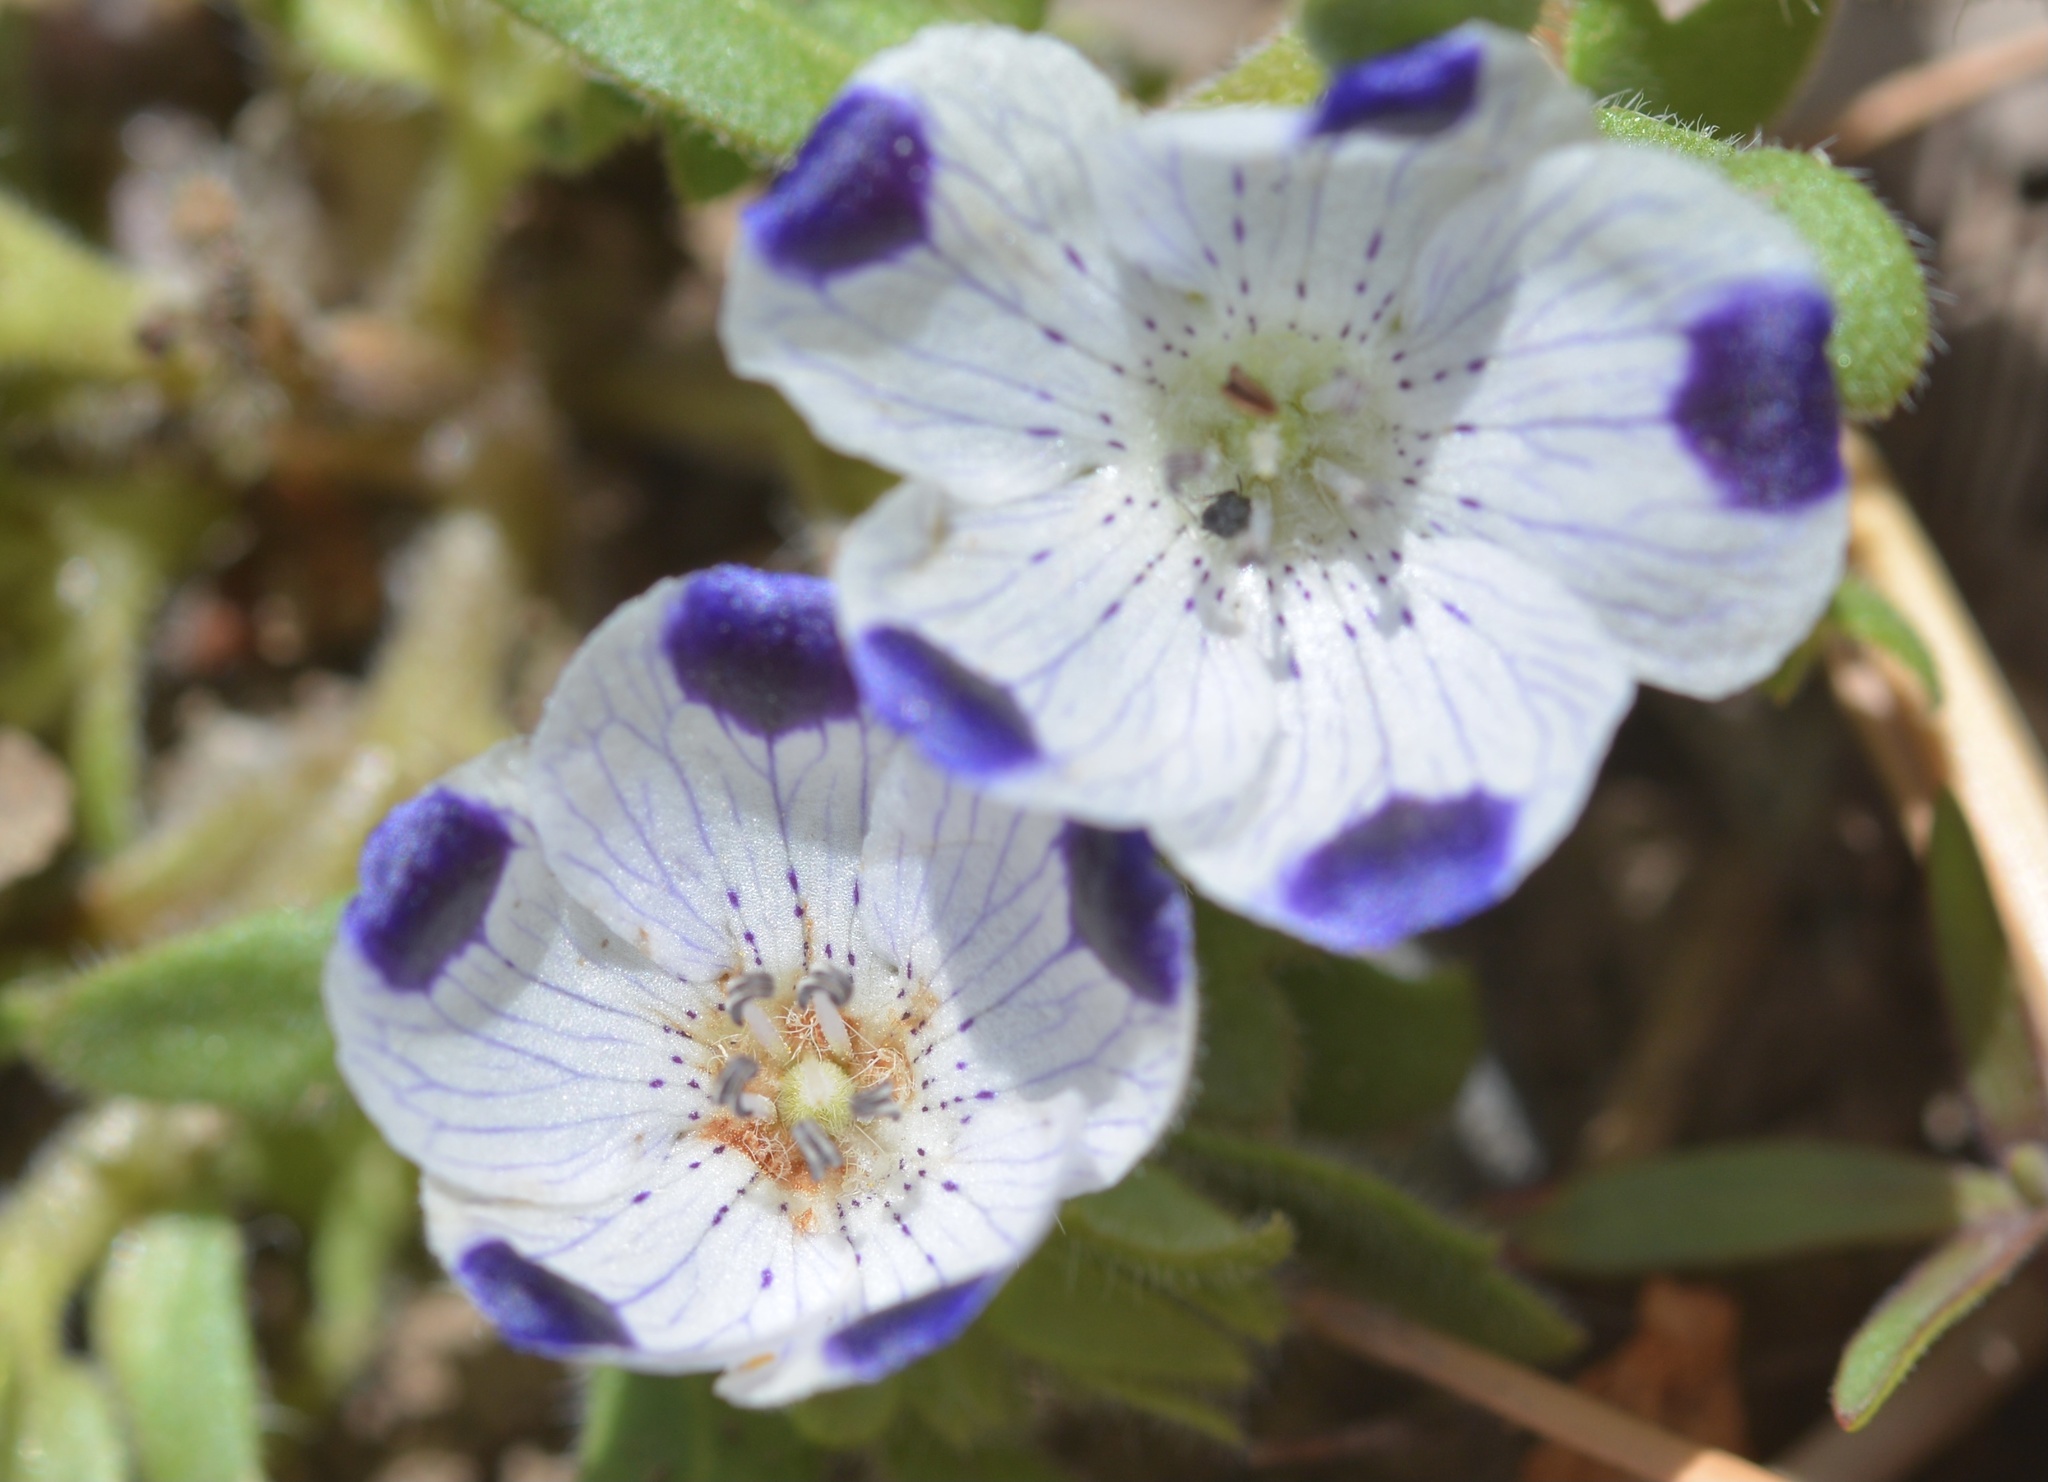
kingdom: Plantae
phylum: Tracheophyta
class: Magnoliopsida
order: Boraginales
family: Hydrophyllaceae
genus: Nemophila
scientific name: Nemophila maculata
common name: Fivespot
